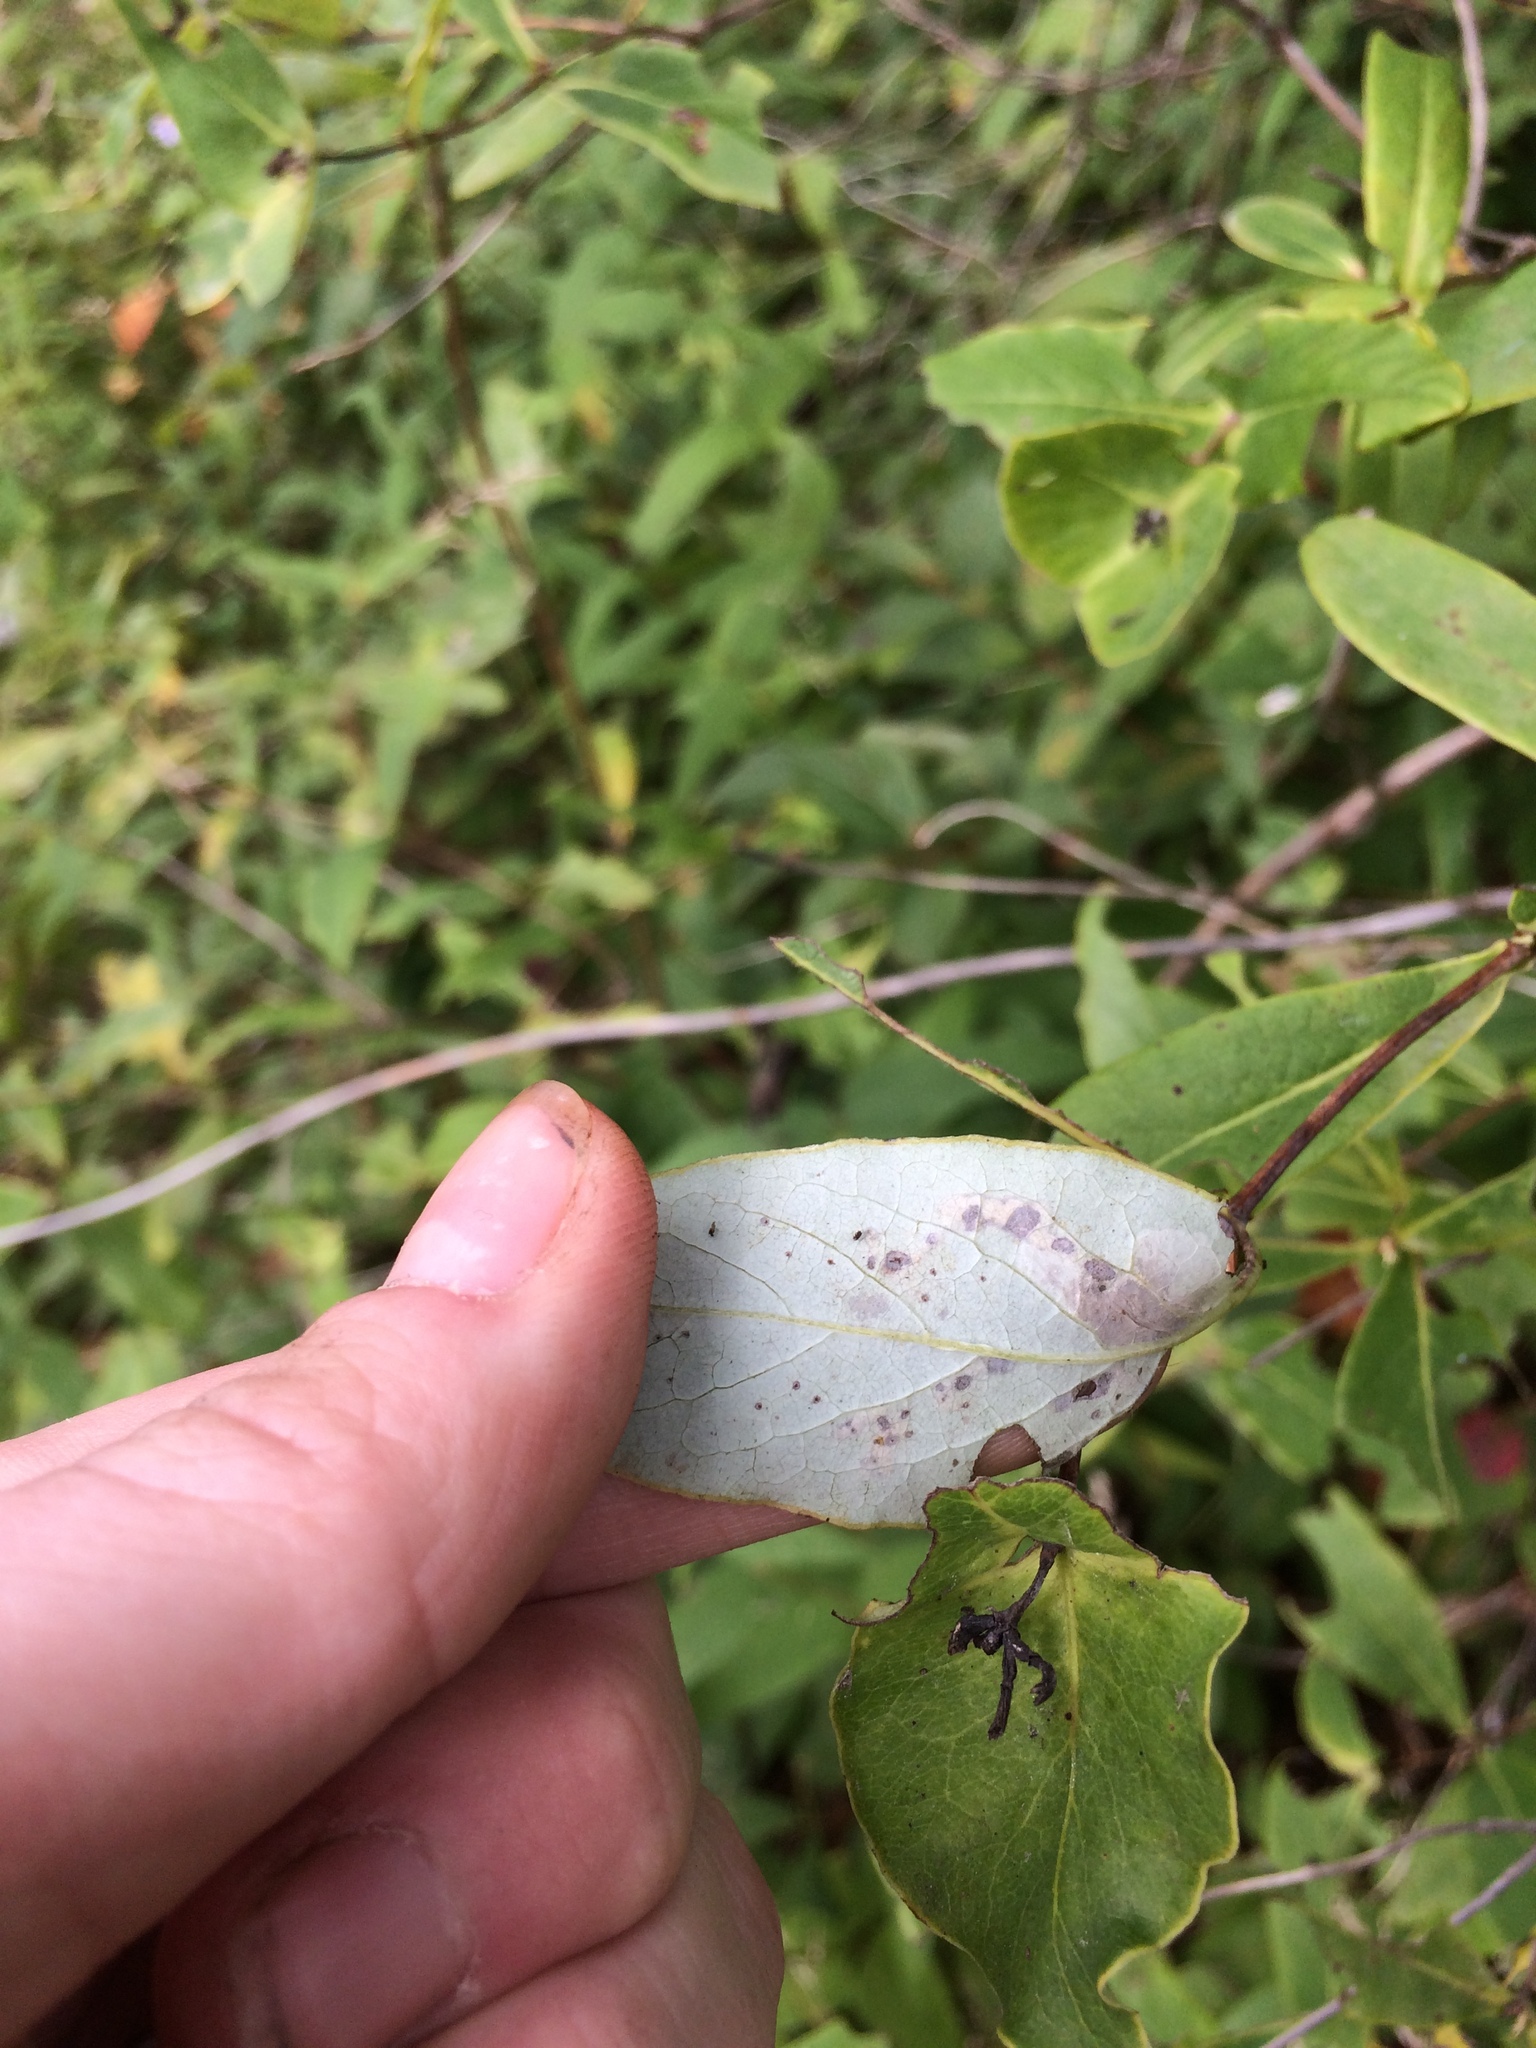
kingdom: Plantae
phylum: Tracheophyta
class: Magnoliopsida
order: Dipsacales
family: Caprifoliaceae
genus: Lonicera
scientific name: Lonicera dioica
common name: Limber honeysuckle
